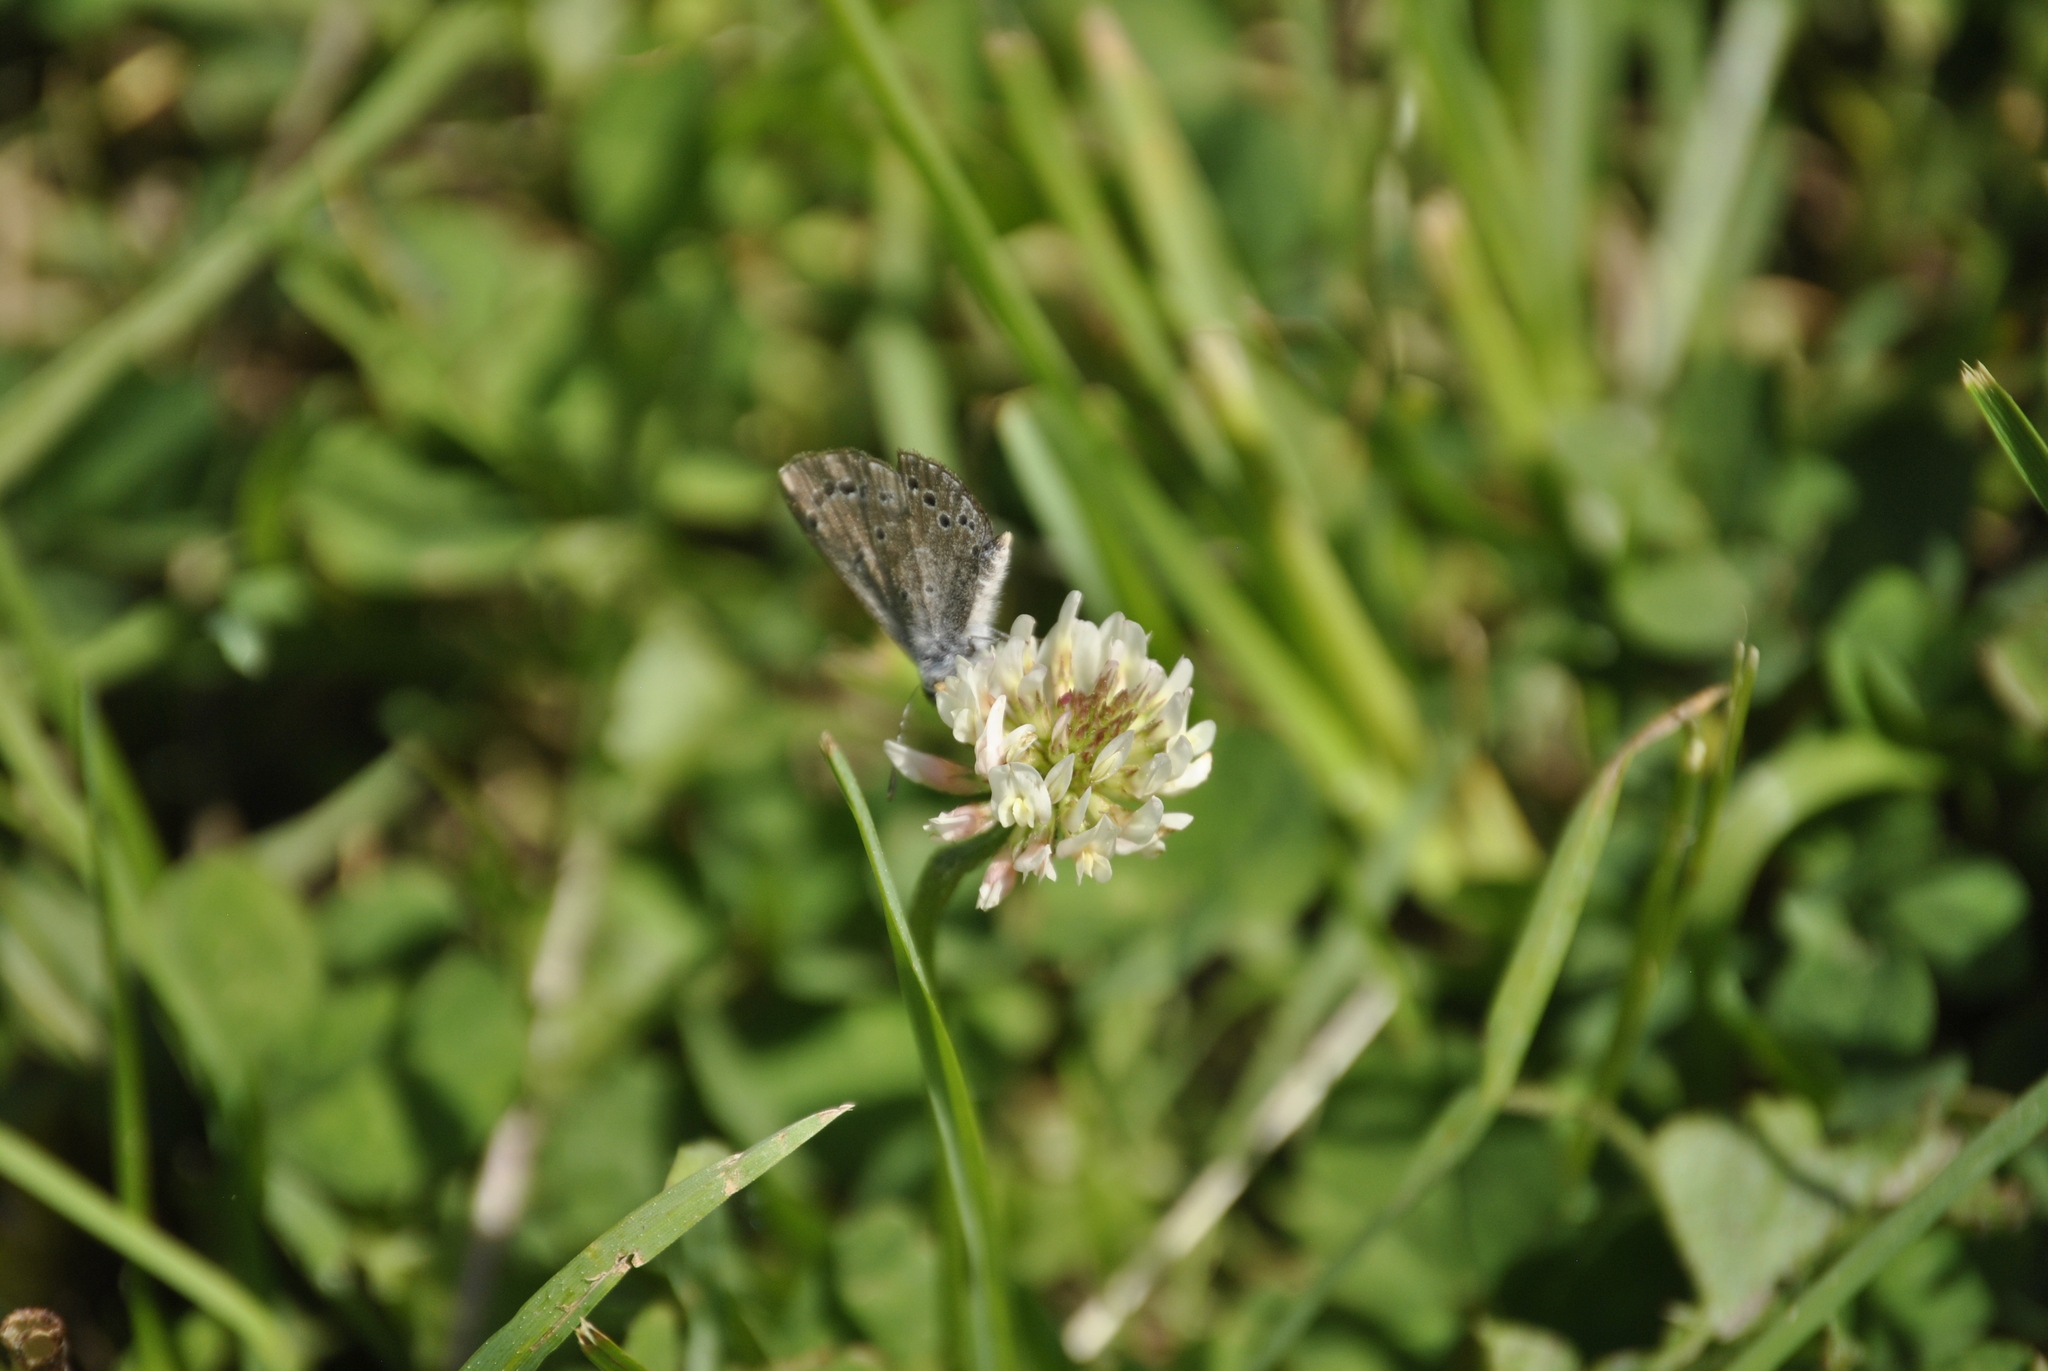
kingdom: Animalia
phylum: Arthropoda
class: Insecta
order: Lepidoptera
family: Lycaenidae
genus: Glaucopsyche
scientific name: Glaucopsyche lygdamus
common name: Silvery blue
